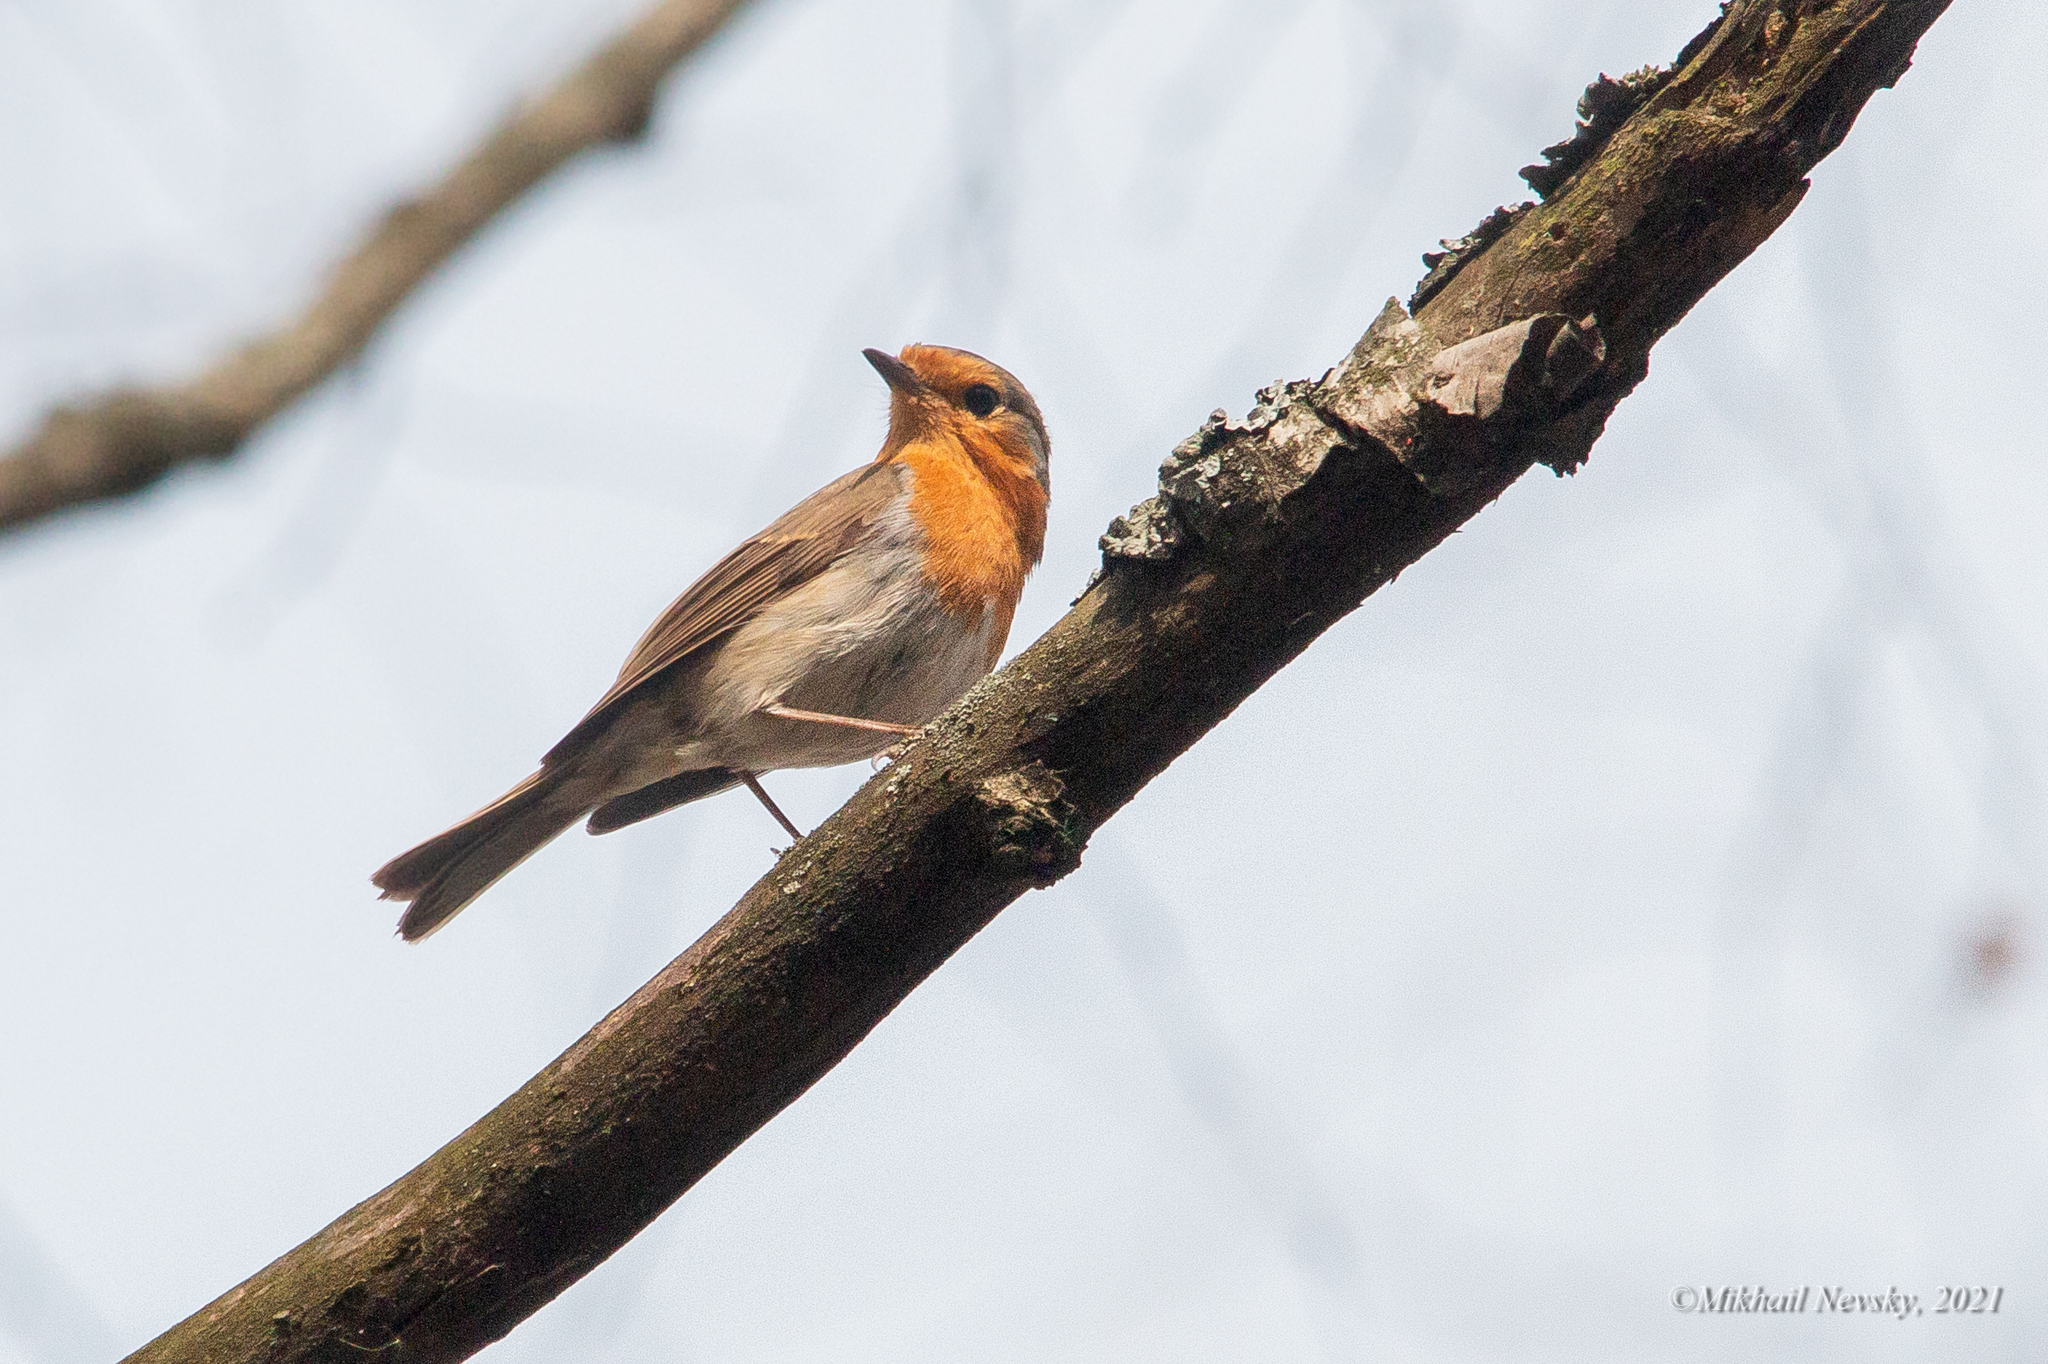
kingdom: Animalia
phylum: Chordata
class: Aves
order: Passeriformes
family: Muscicapidae
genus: Erithacus
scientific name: Erithacus rubecula
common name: European robin
